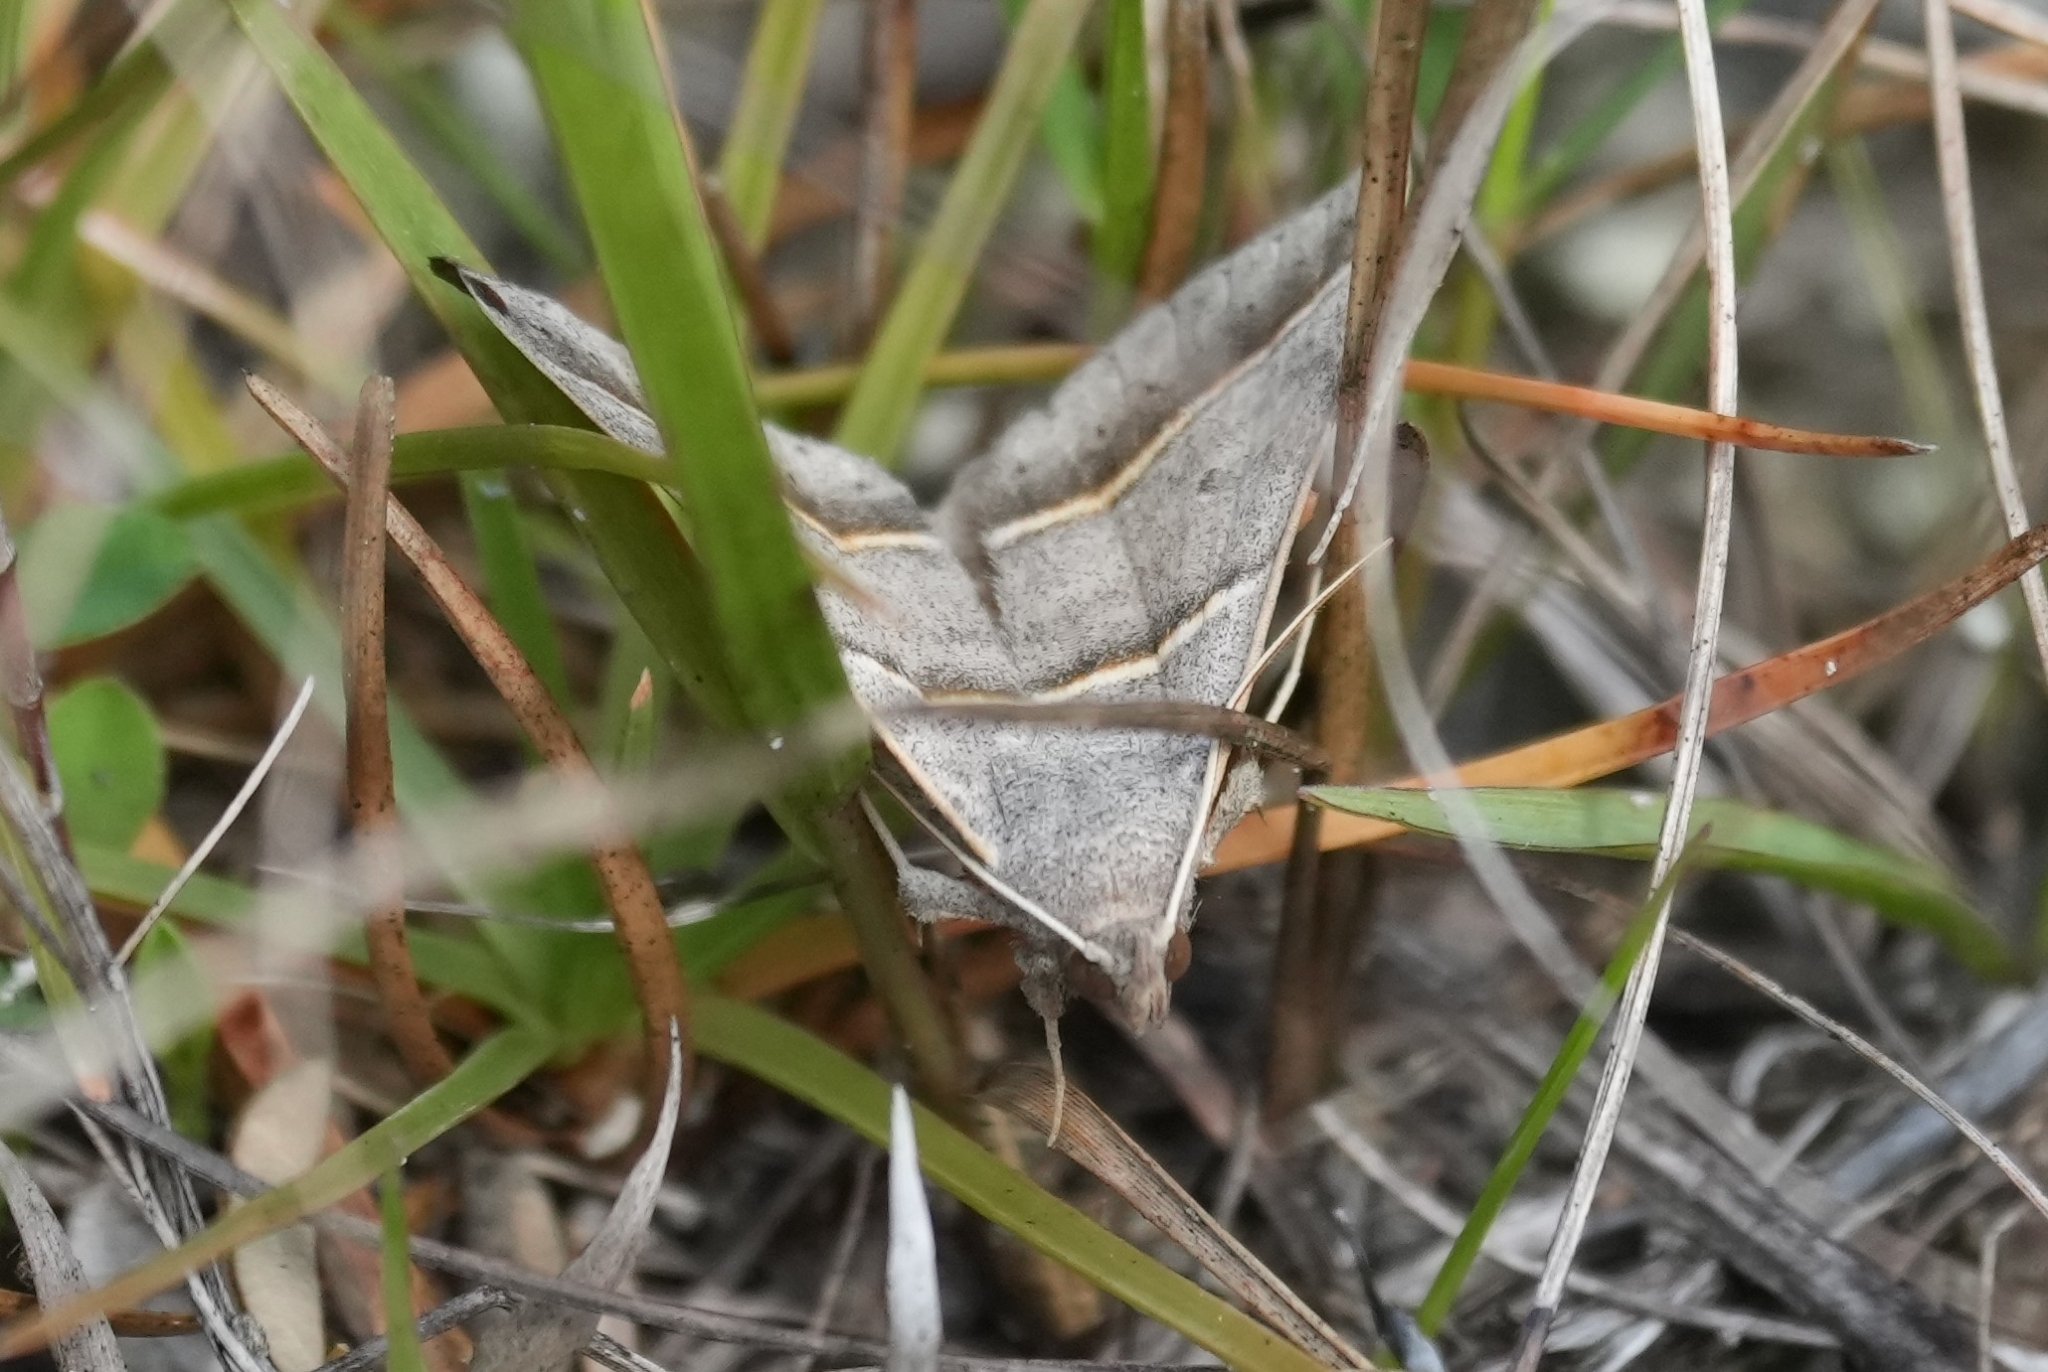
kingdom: Animalia
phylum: Arthropoda
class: Insecta
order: Lepidoptera
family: Erebidae
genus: Ptichodis
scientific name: Ptichodis vinculum
